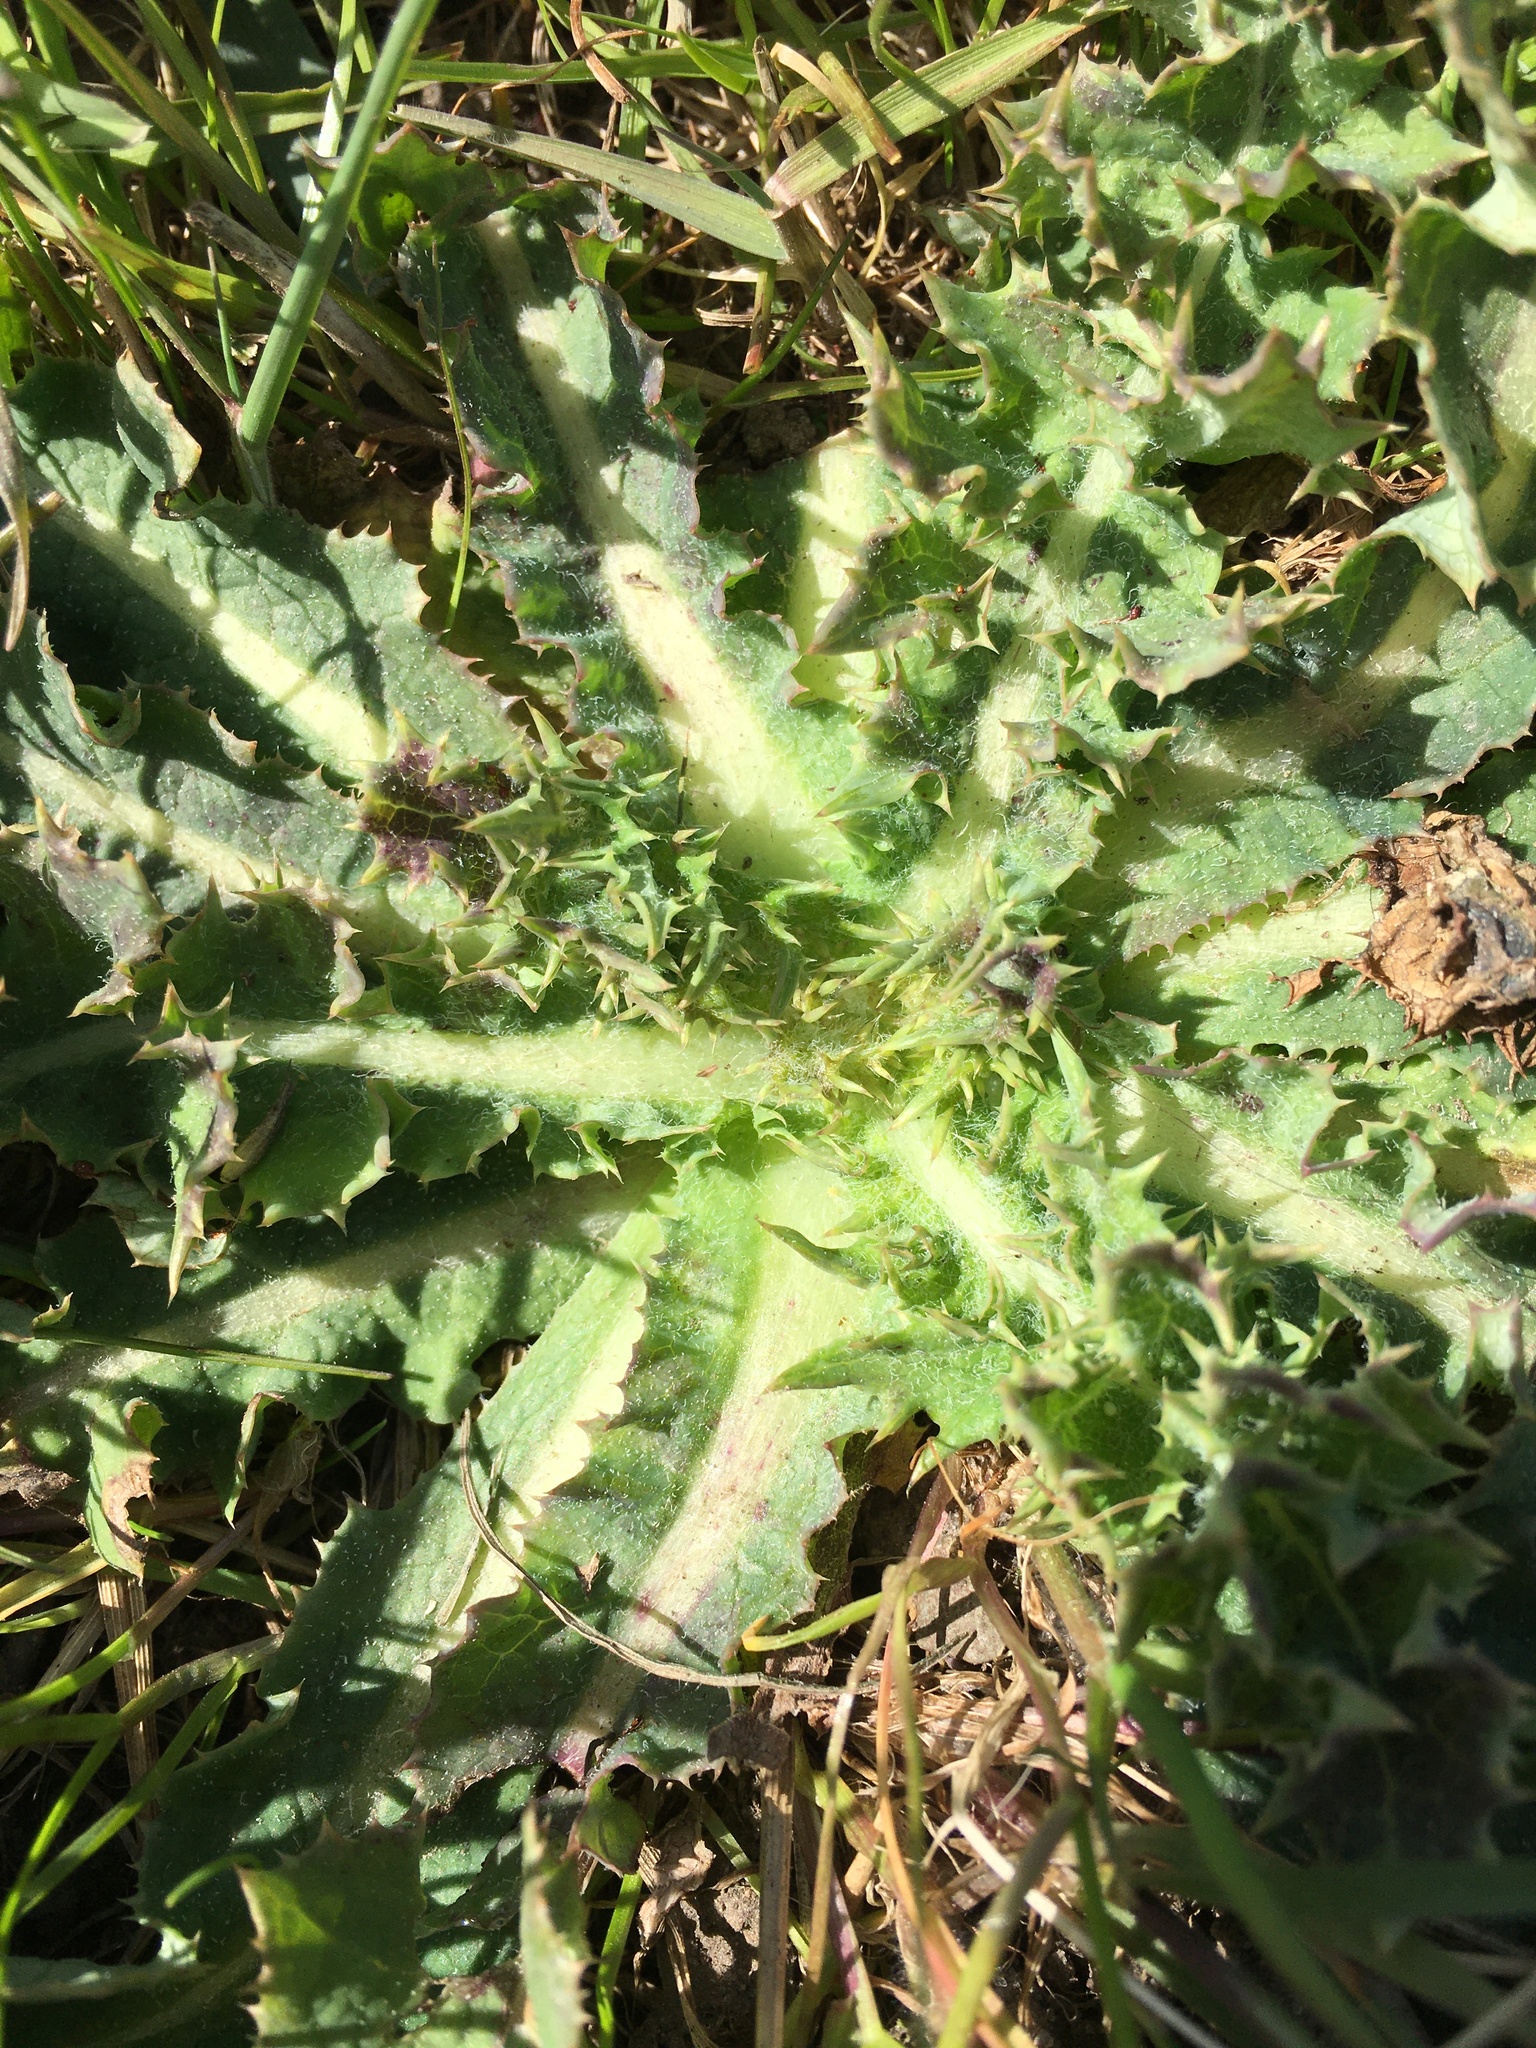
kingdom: Plantae
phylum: Tracheophyta
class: Magnoliopsida
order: Asterales
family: Asteraceae
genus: Sonchus
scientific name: Sonchus asper
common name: Prickly sow-thistle
